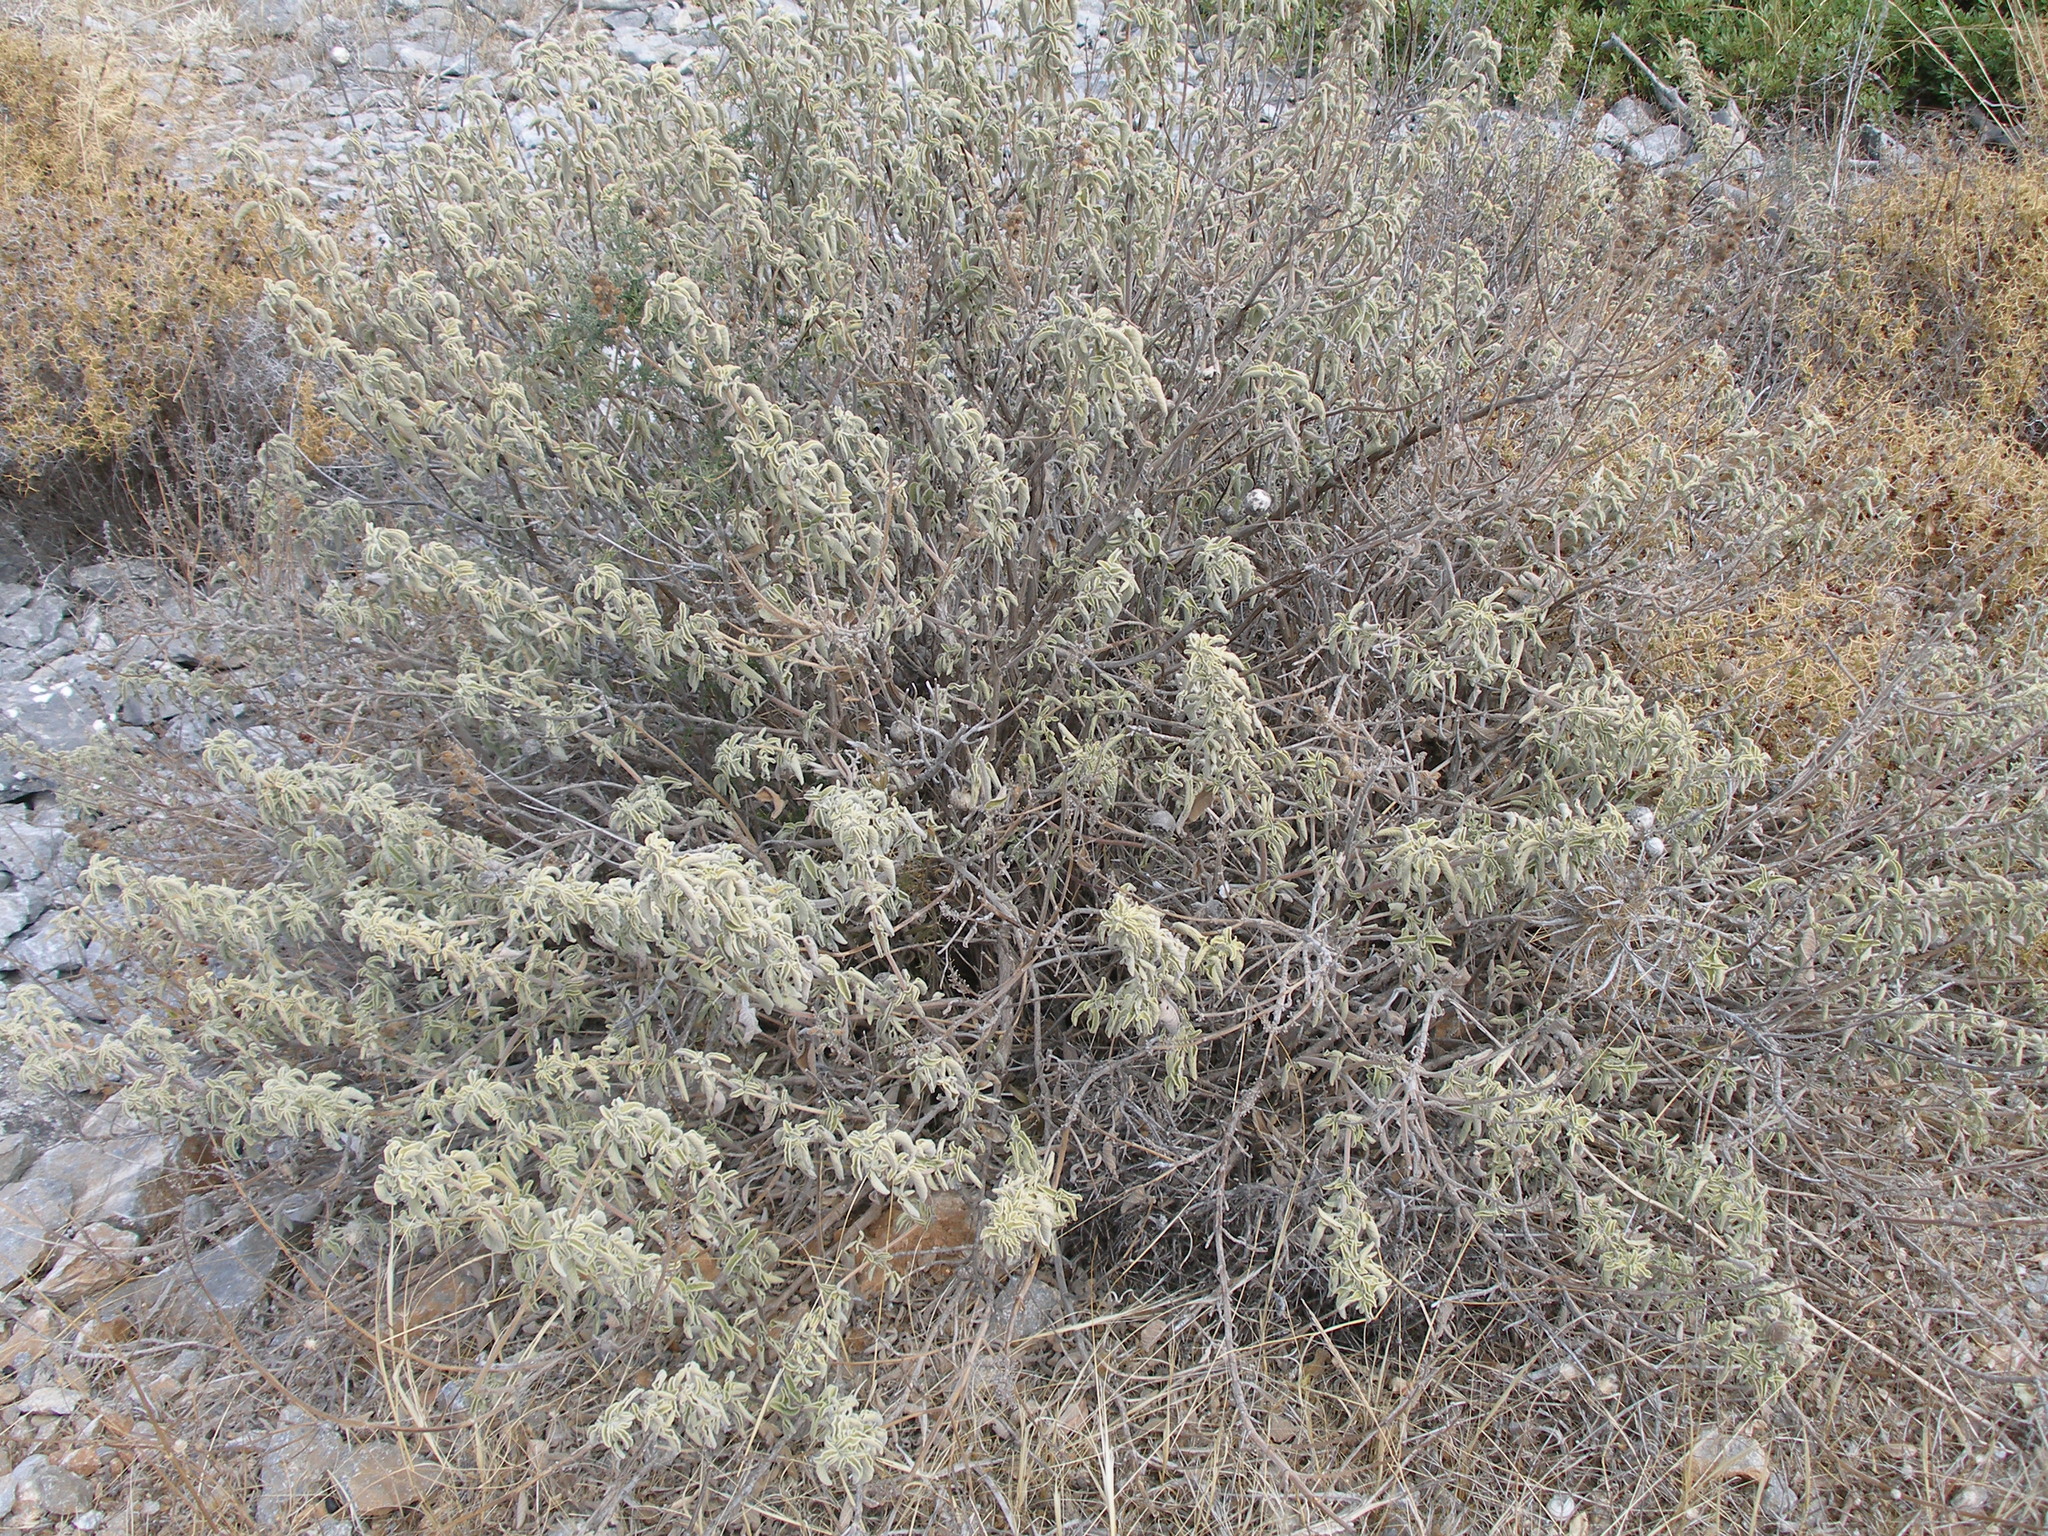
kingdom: Plantae
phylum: Tracheophyta
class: Magnoliopsida
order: Lamiales
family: Lamiaceae
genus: Salvia
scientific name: Salvia fruticosa
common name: Greek sage
